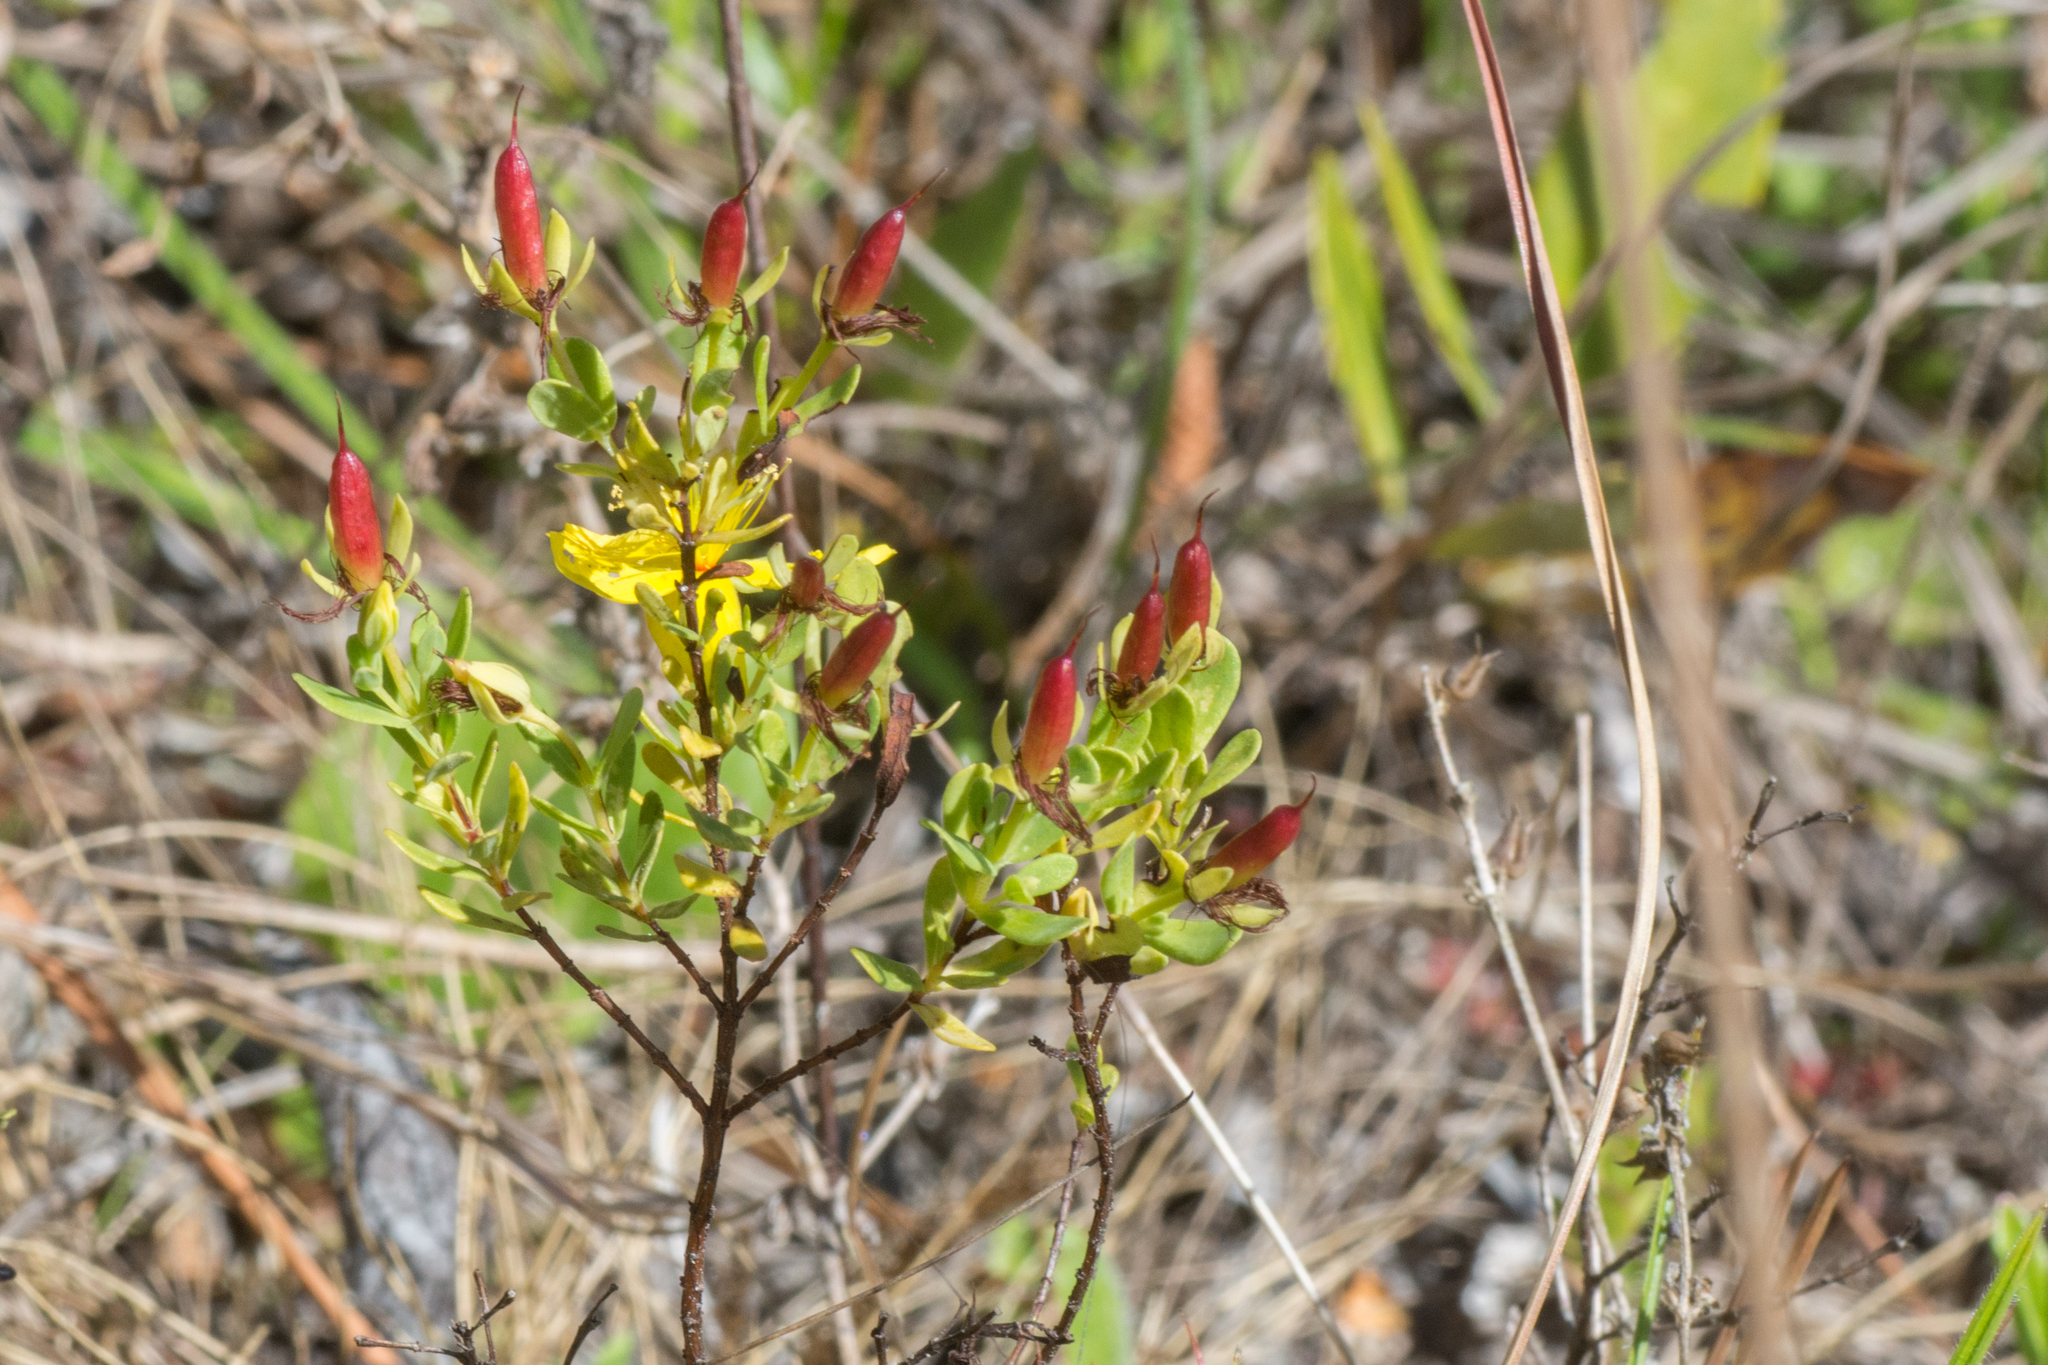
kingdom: Plantae
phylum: Tracheophyta
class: Magnoliopsida
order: Malpighiales
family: Hypericaceae
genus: Hypericum
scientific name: Hypericum microsepalum
